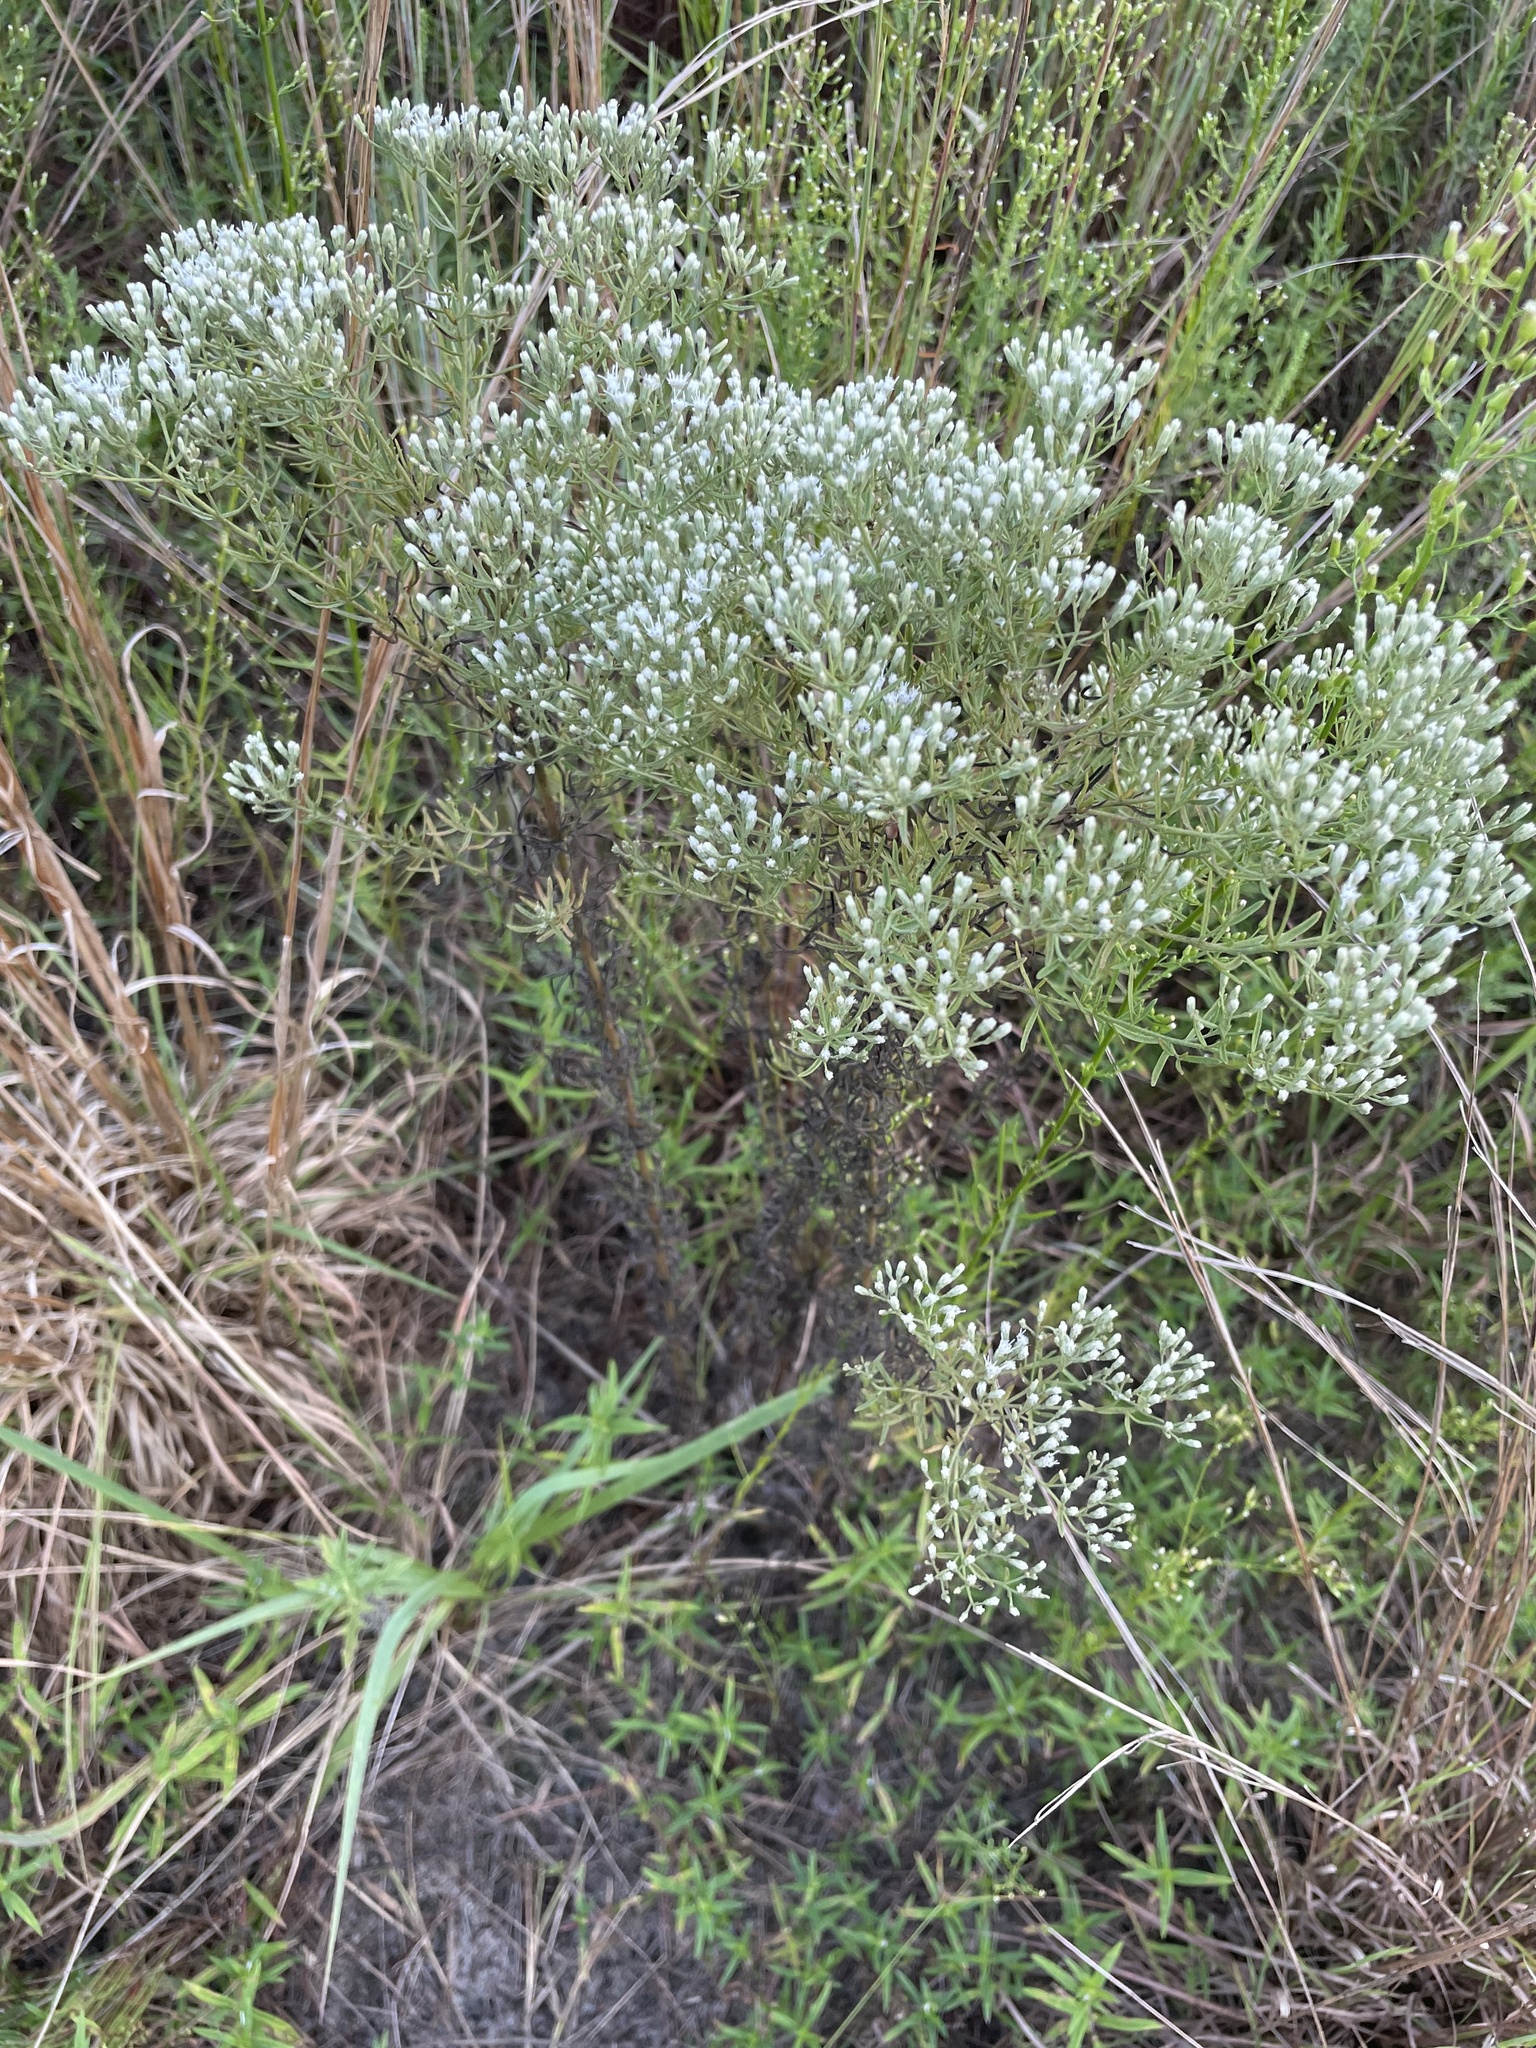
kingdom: Plantae
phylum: Tracheophyta
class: Magnoliopsida
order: Asterales
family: Asteraceae
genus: Eupatorium
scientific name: Eupatorium hyssopifolium
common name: Hyssop-leaf thoroughwort
